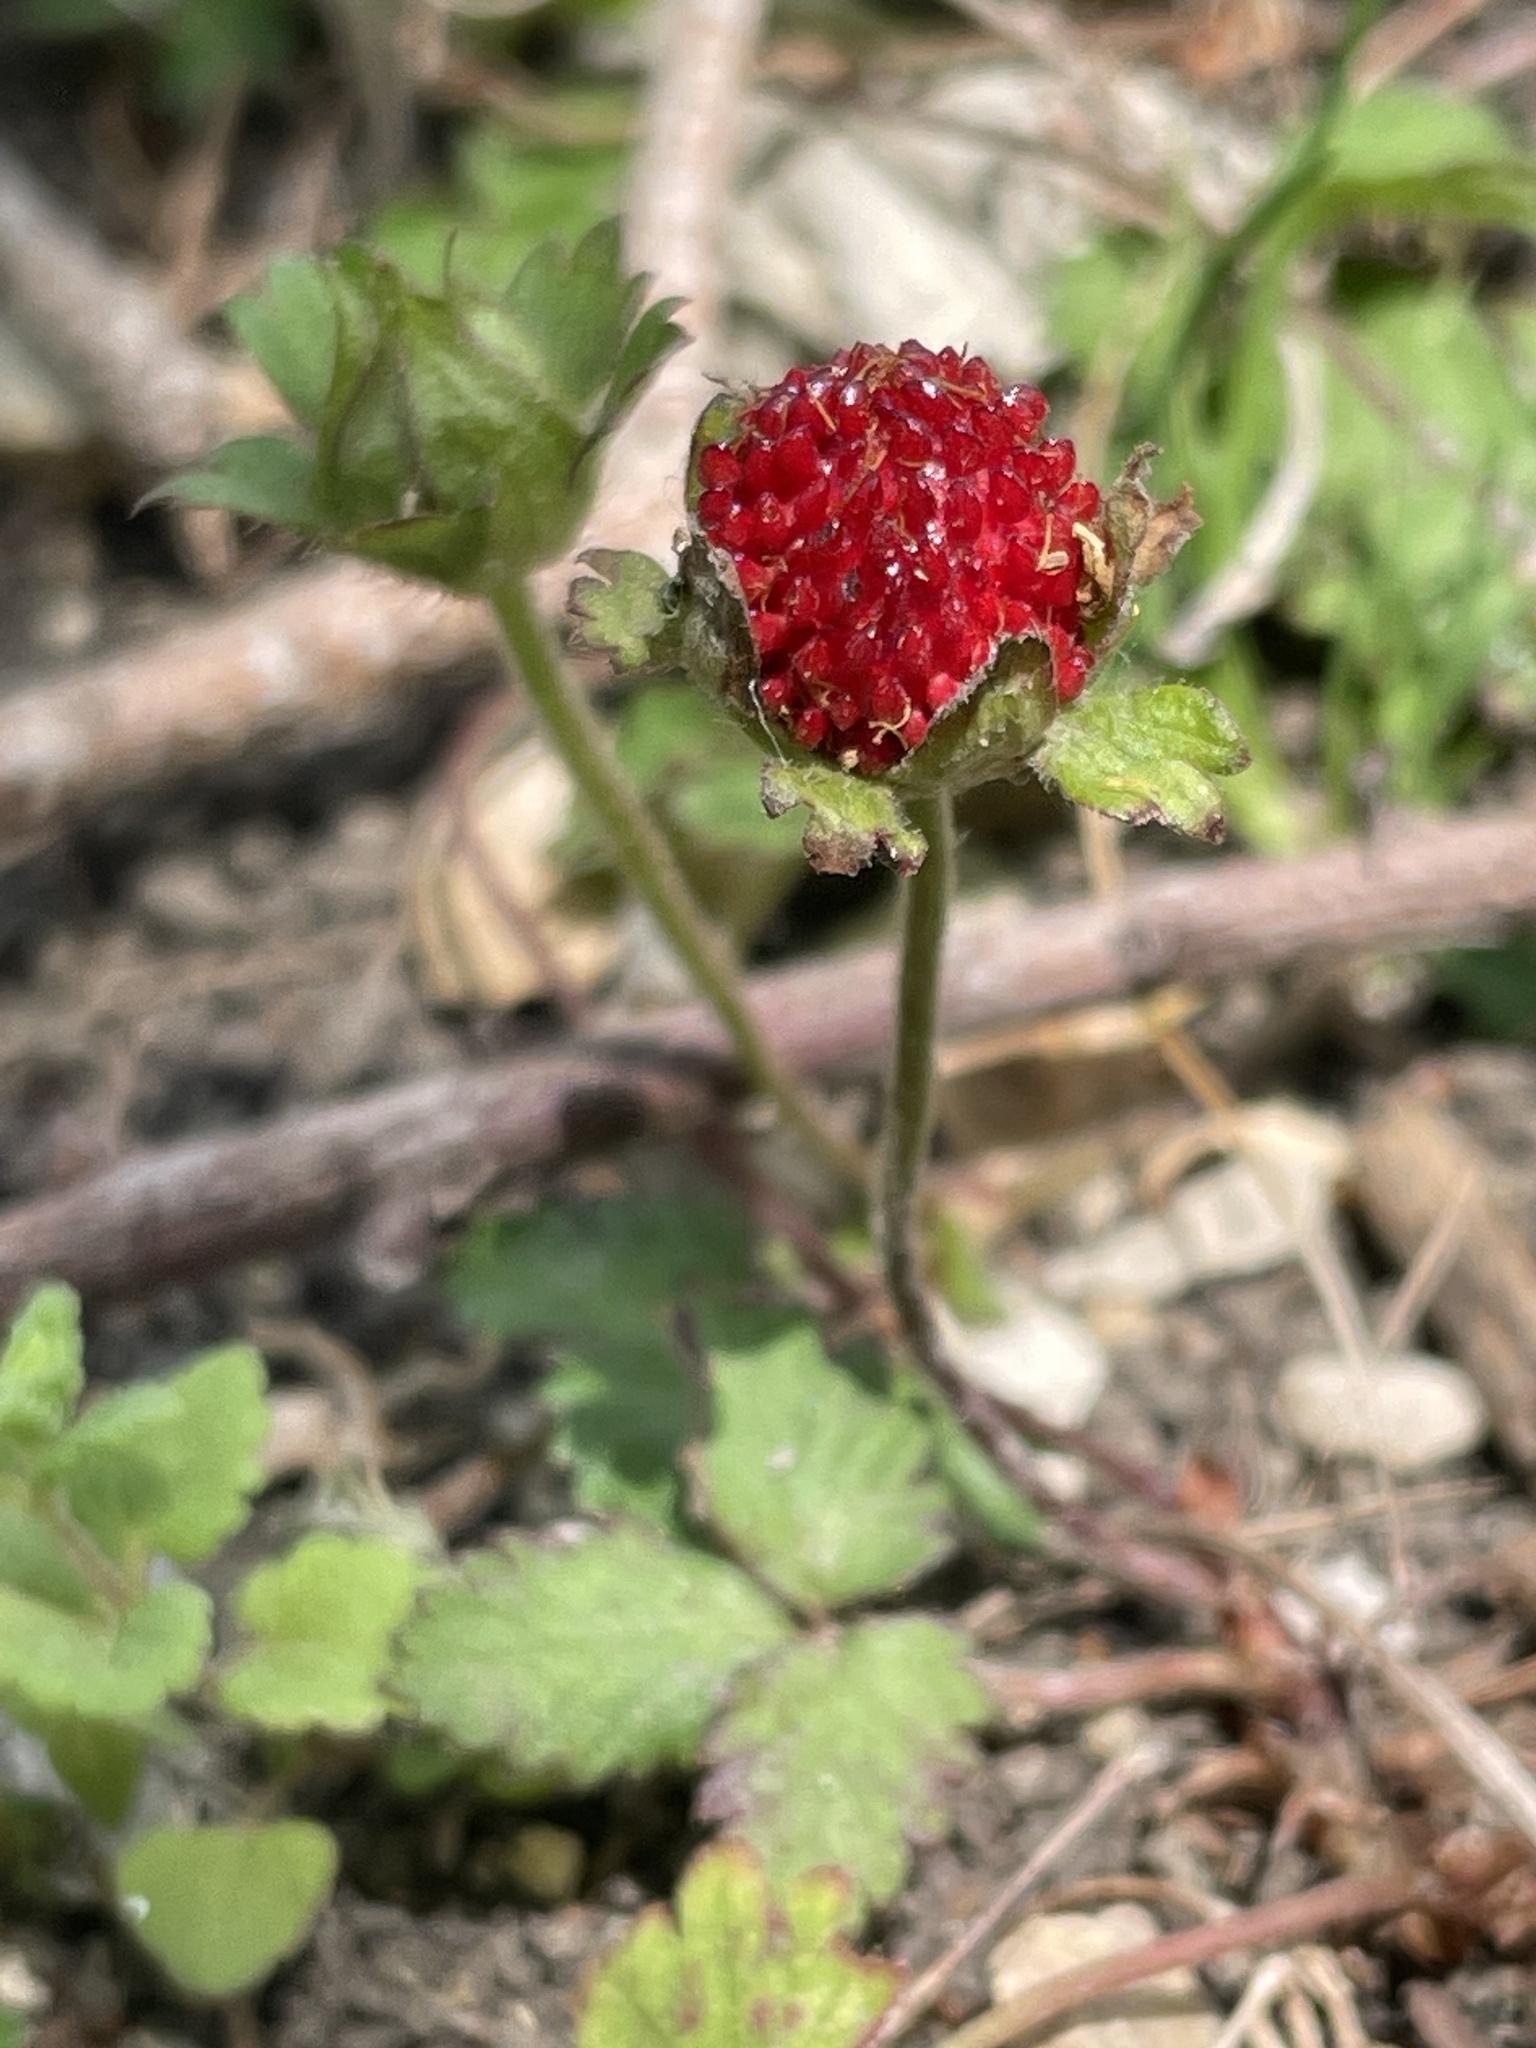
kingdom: Plantae
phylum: Tracheophyta
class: Magnoliopsida
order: Rosales
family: Rosaceae
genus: Potentilla
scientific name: Potentilla indica
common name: Yellow-flowered strawberry
